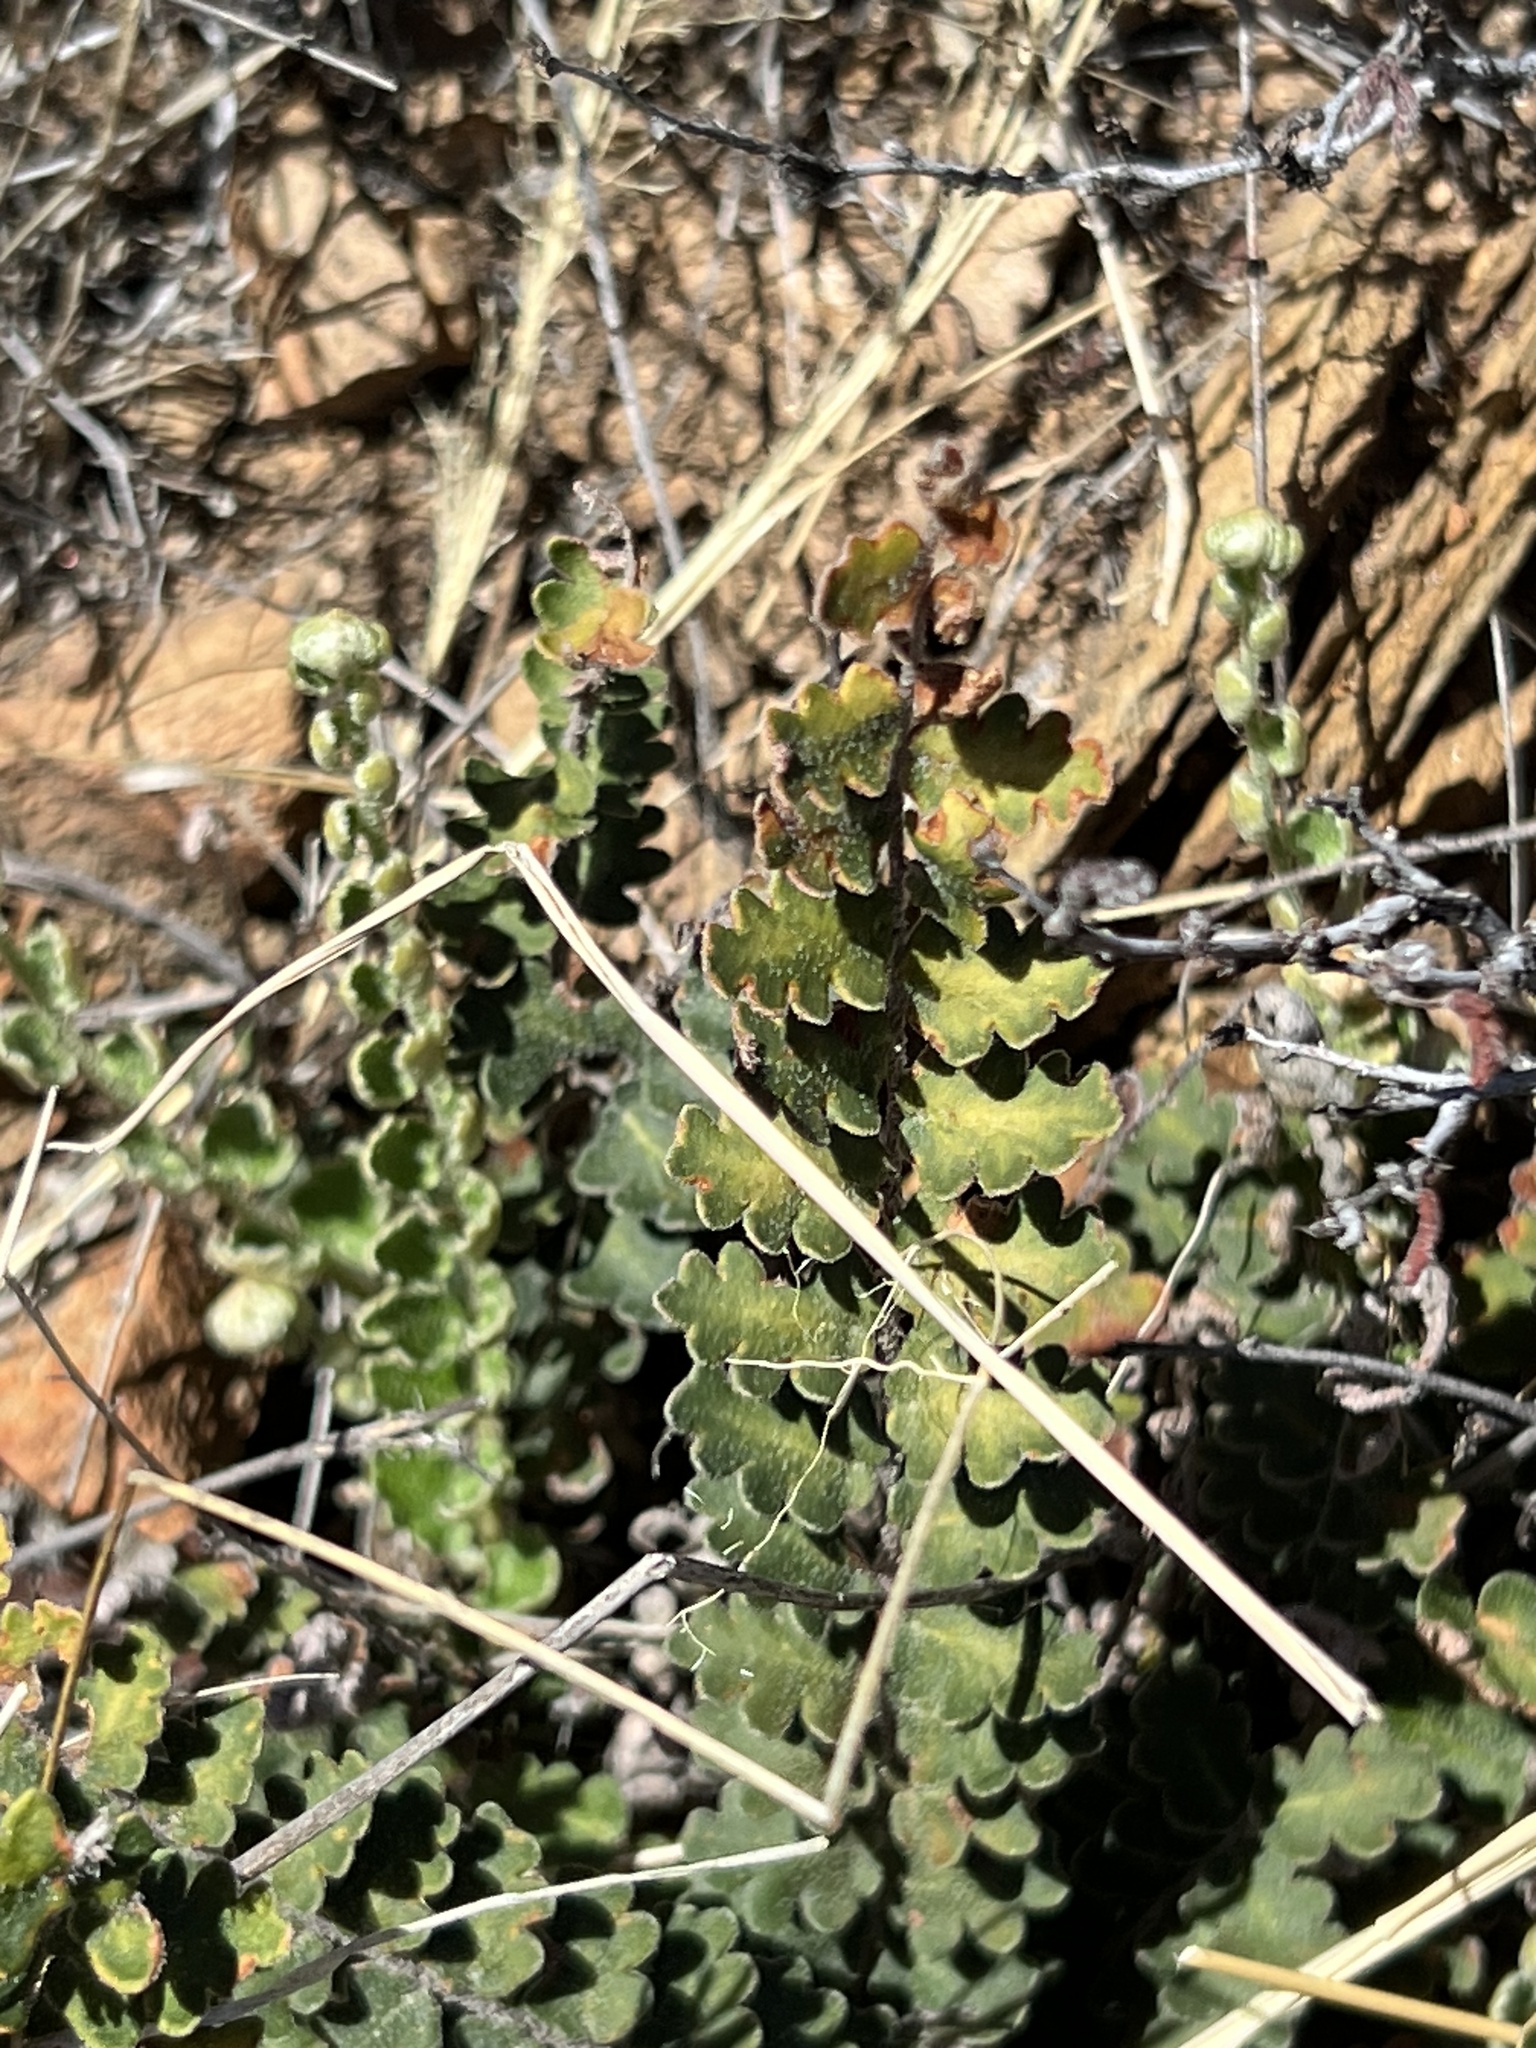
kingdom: Plantae
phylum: Tracheophyta
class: Polypodiopsida
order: Polypodiales
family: Pteridaceae
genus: Astrolepis
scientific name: Astrolepis sinuata
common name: Wavy scaly cloakfern
